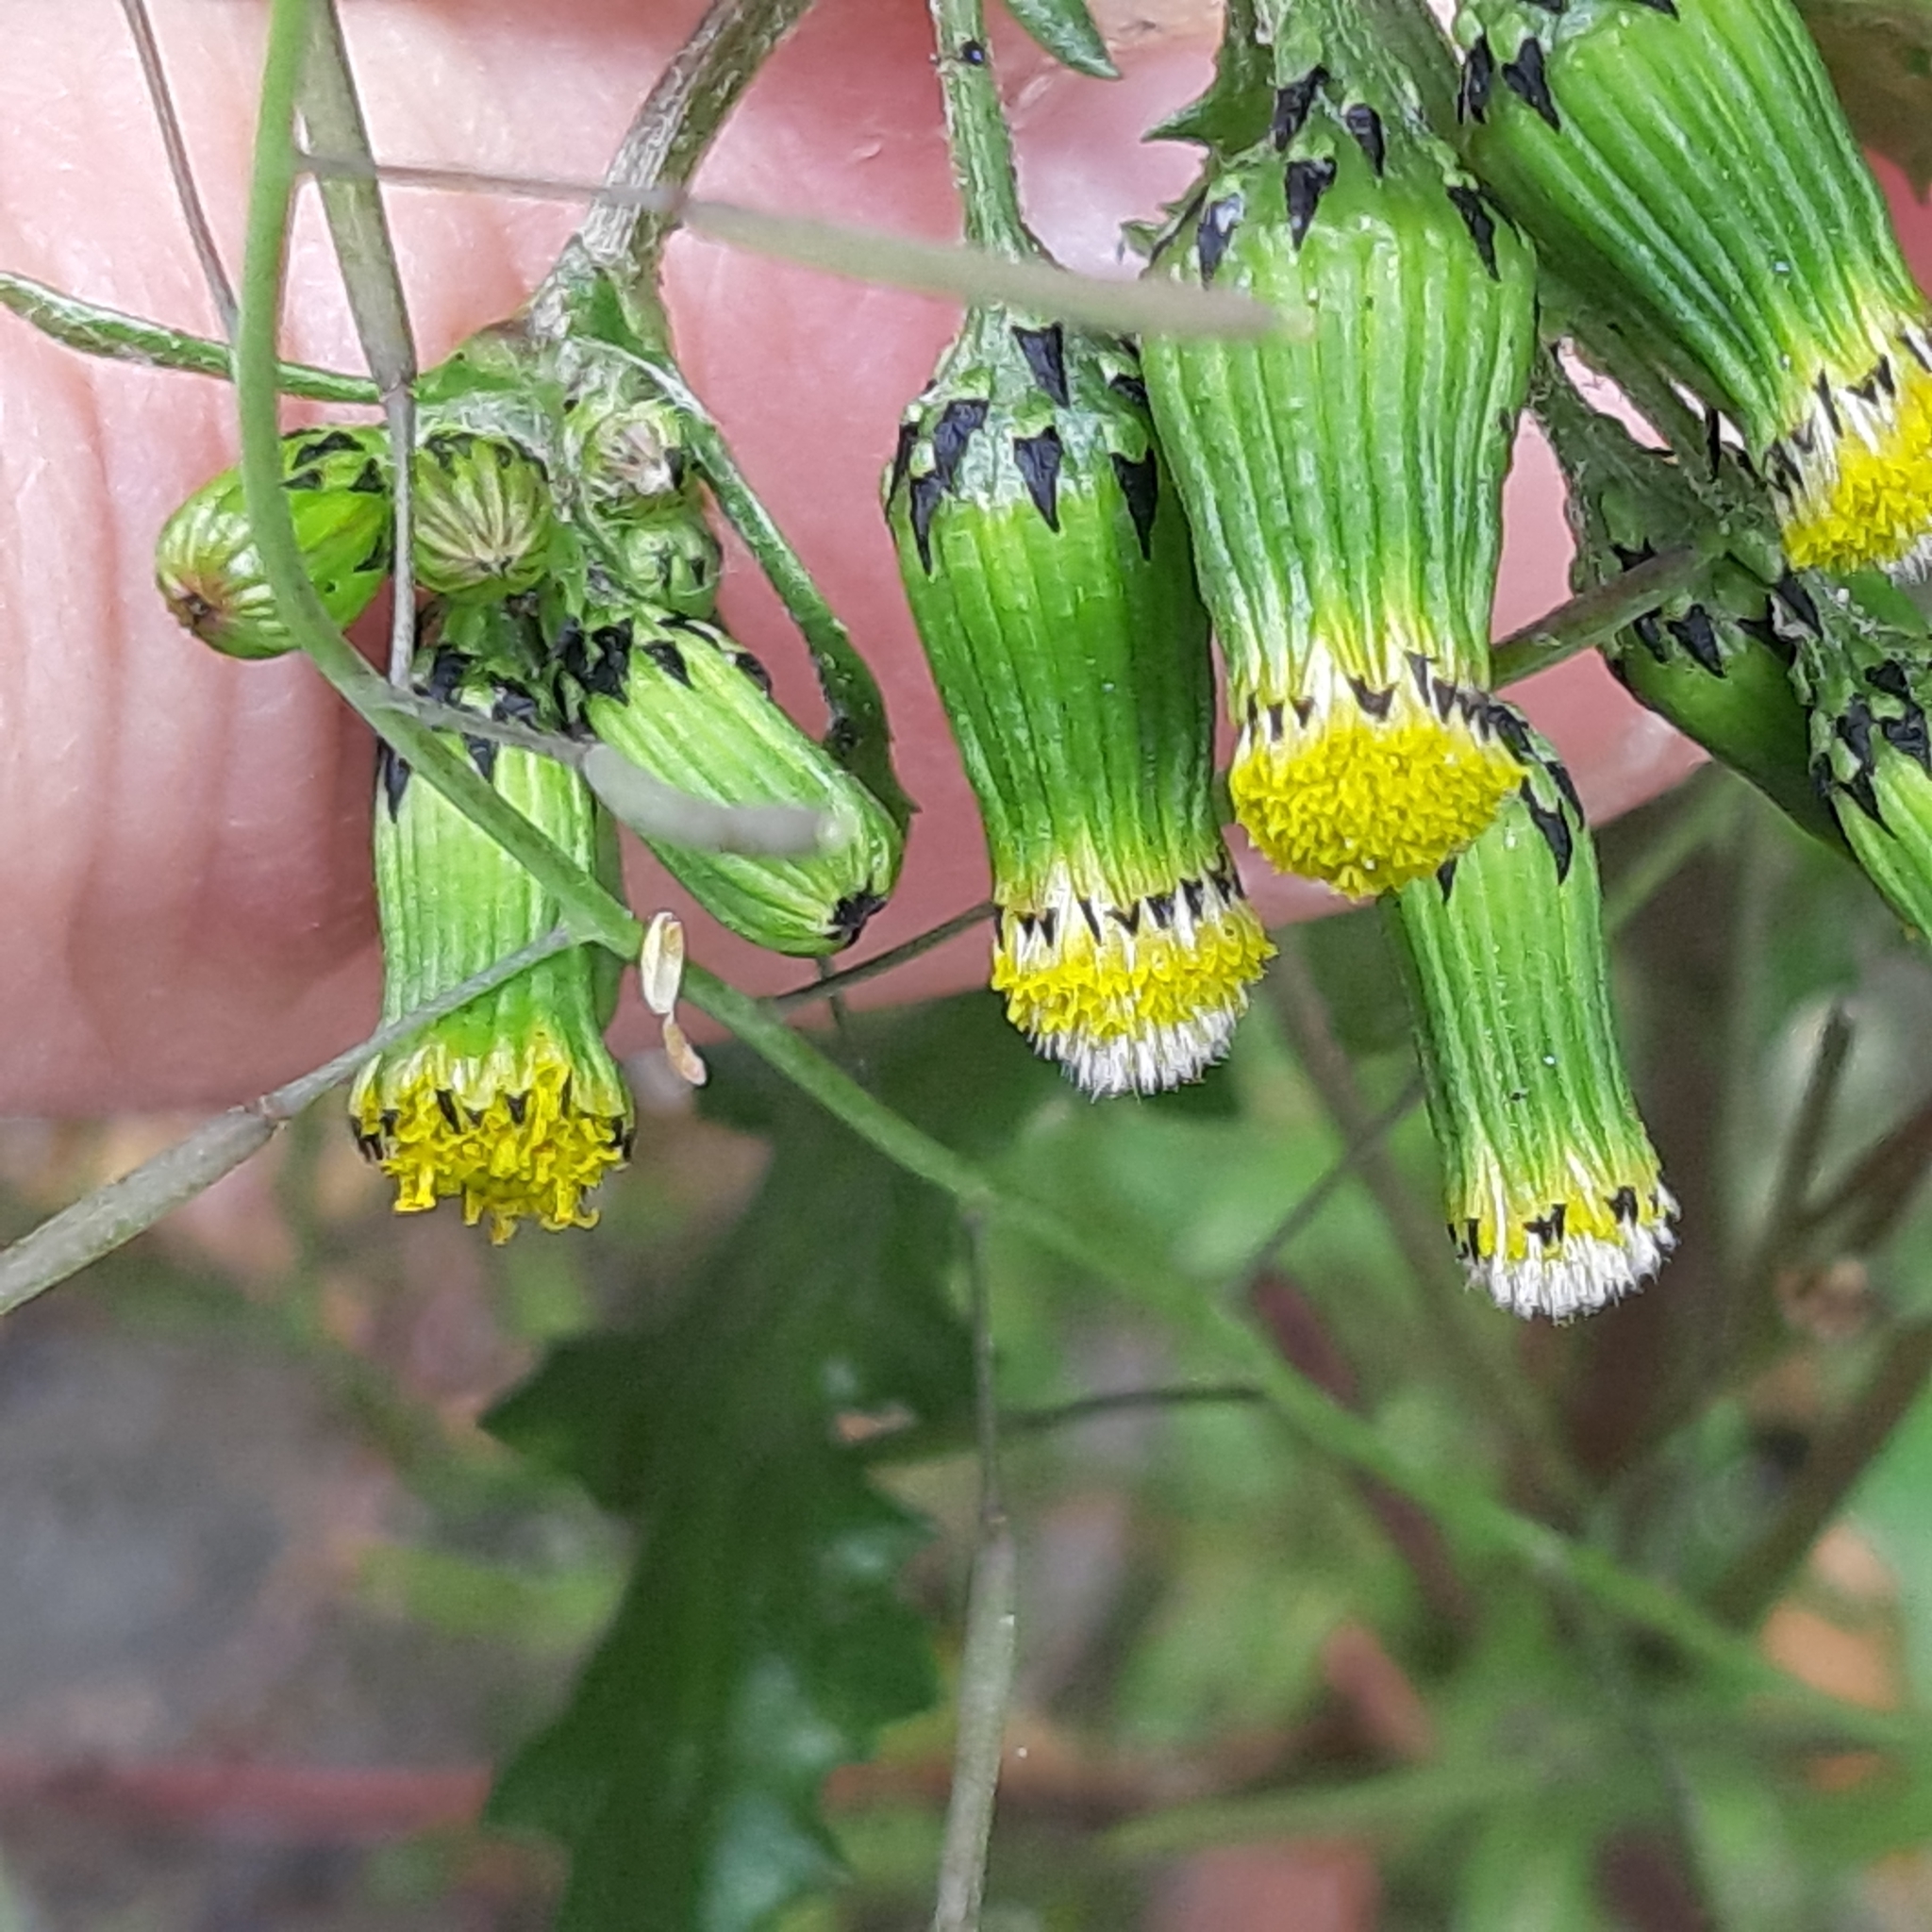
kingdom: Plantae
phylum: Tracheophyta
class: Magnoliopsida
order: Asterales
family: Asteraceae
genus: Senecio
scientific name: Senecio vulgaris
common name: Old-man-in-the-spring
